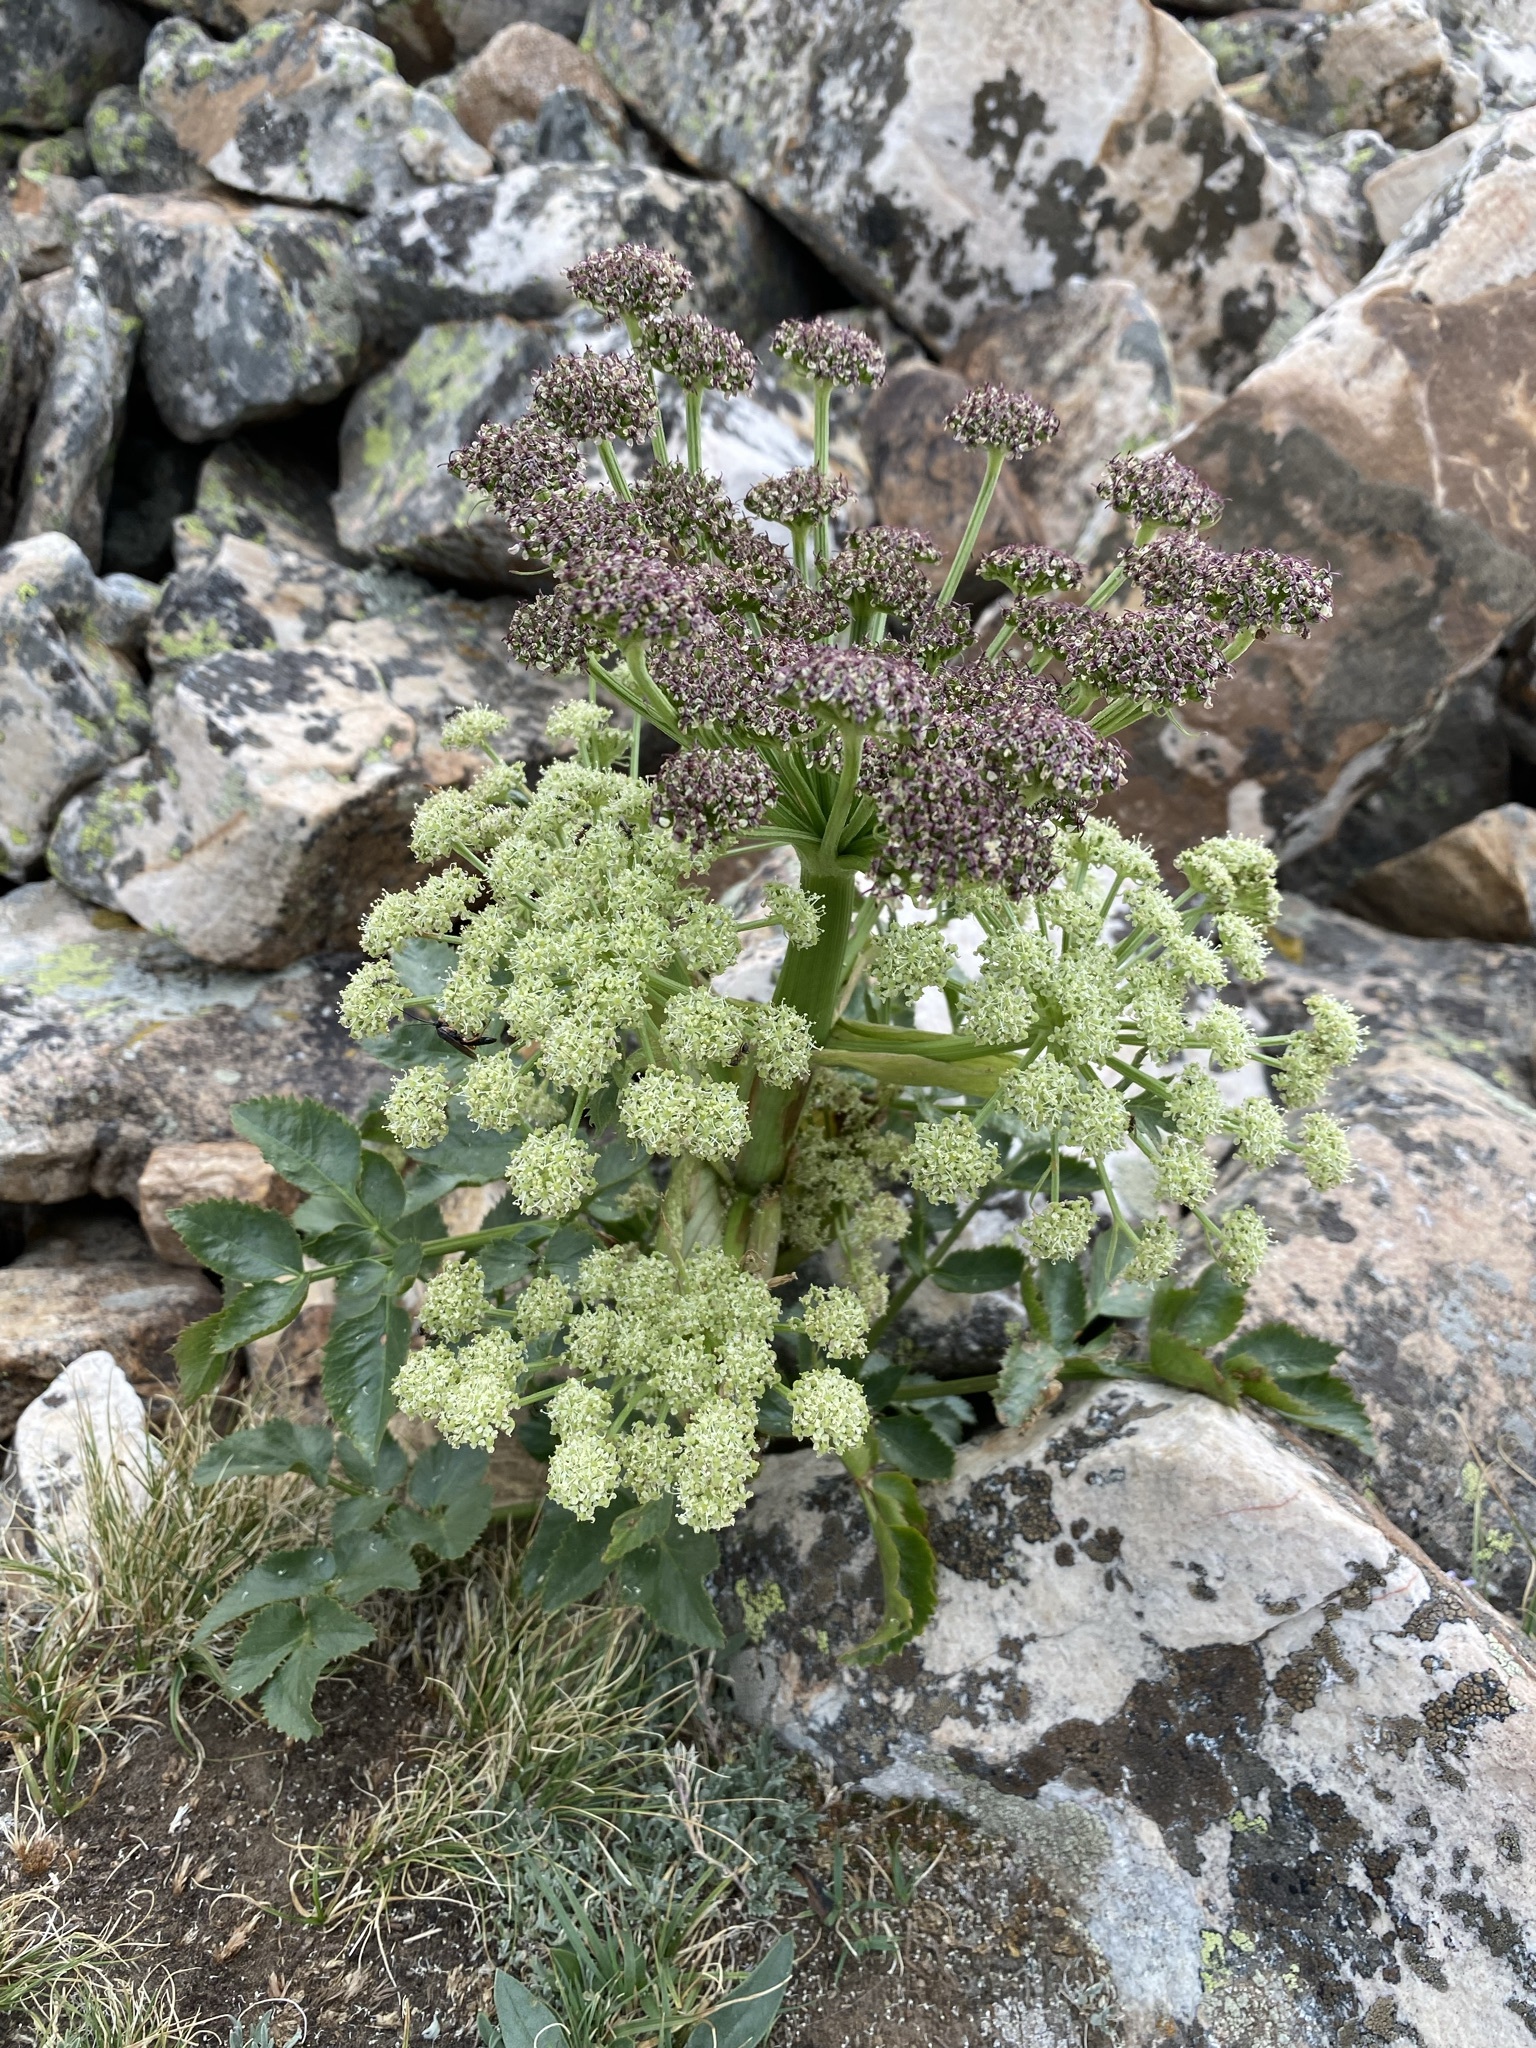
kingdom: Plantae
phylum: Tracheophyta
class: Magnoliopsida
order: Apiales
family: Apiaceae
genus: Angelica
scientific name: Angelica roseana
